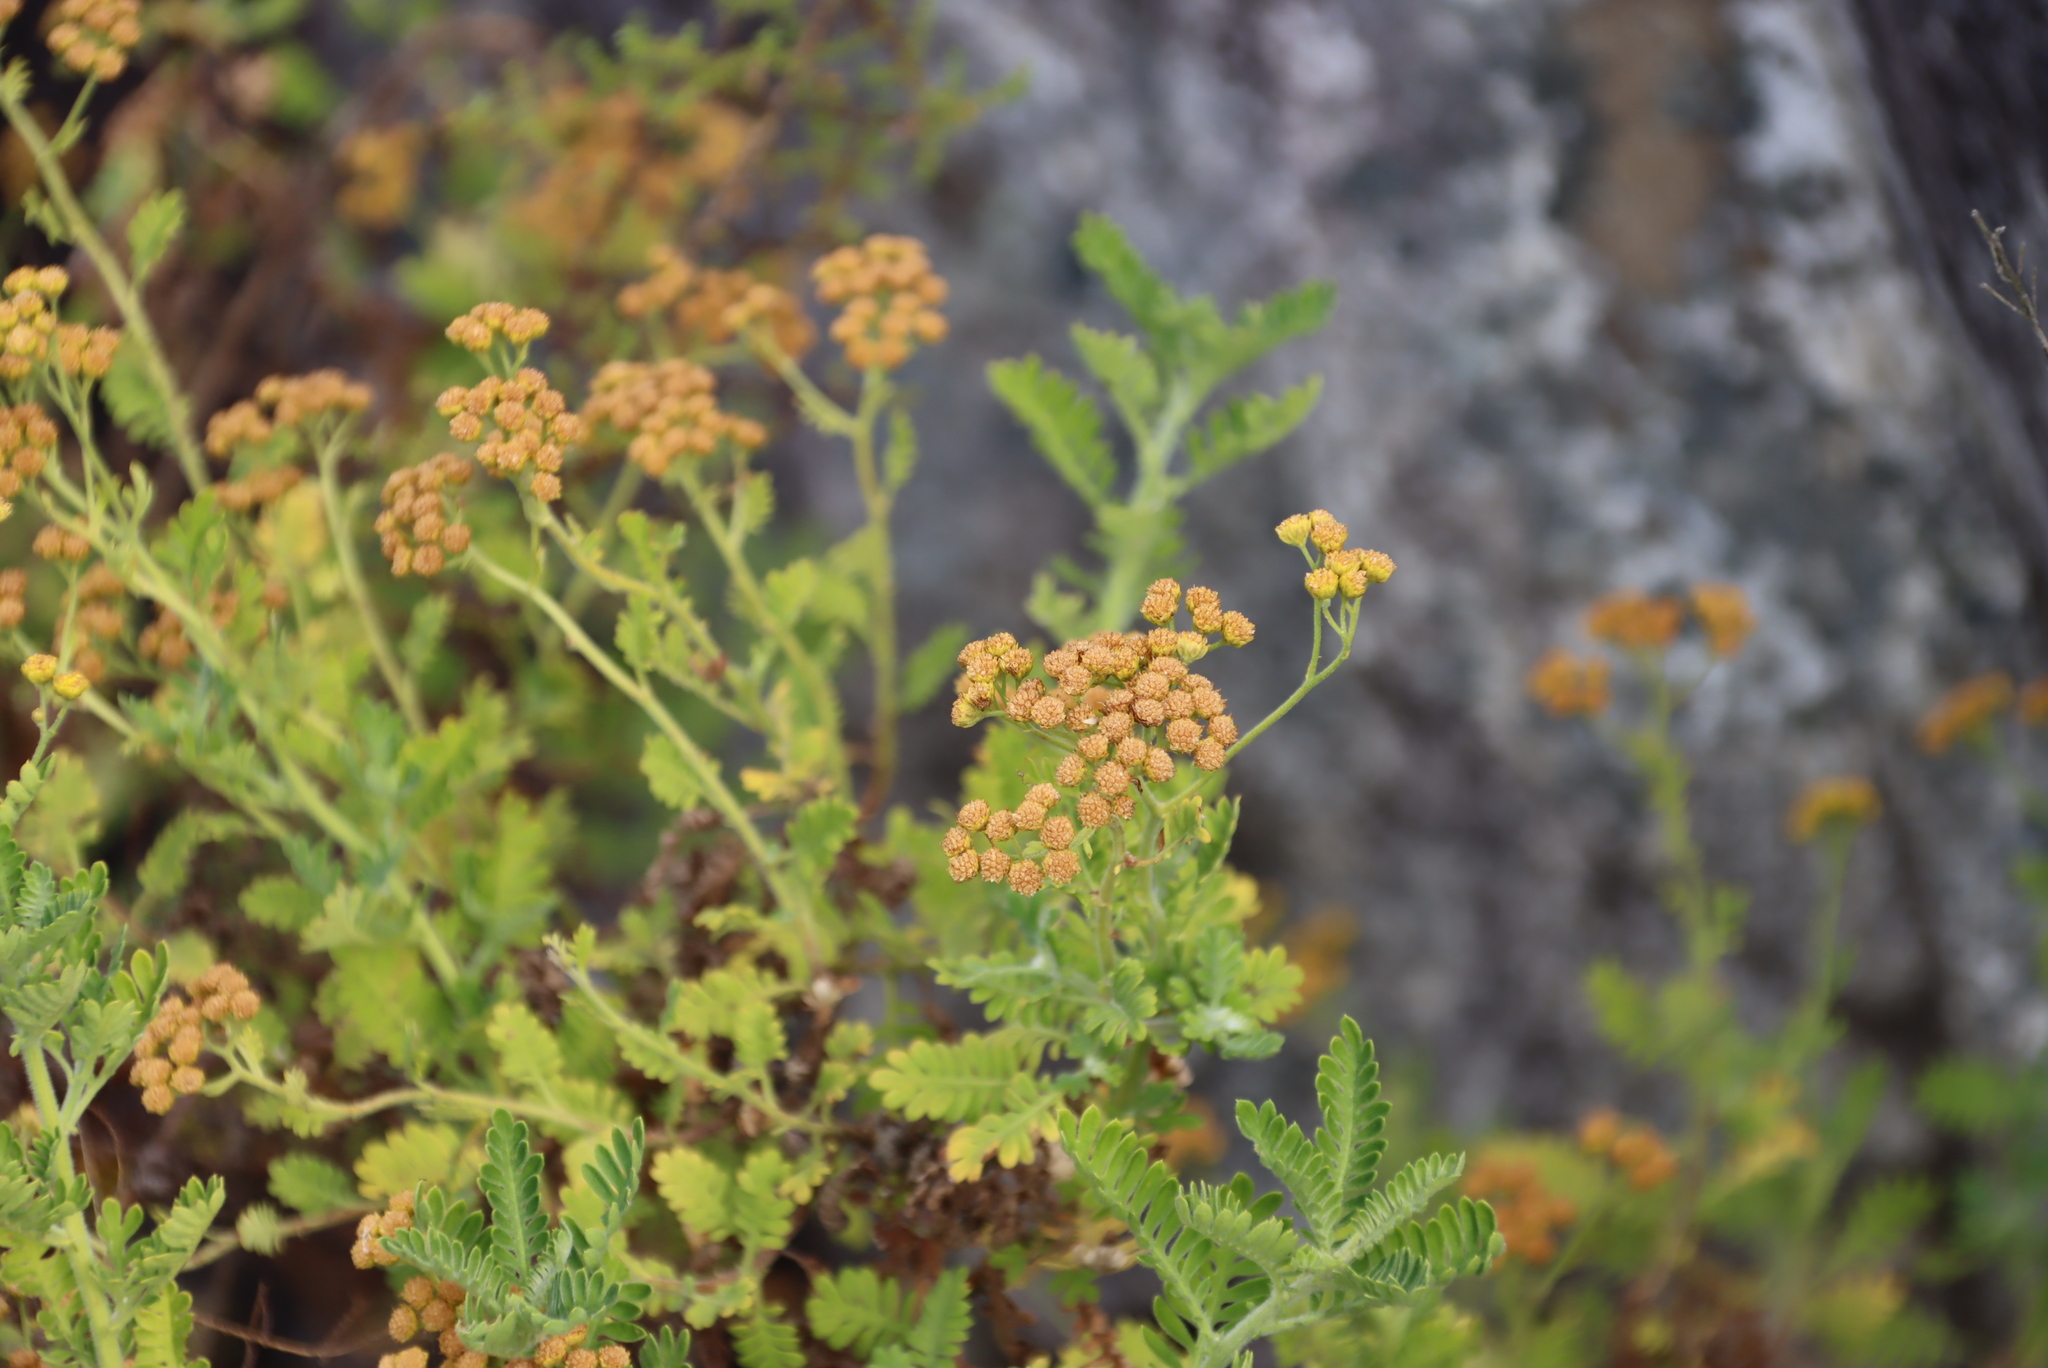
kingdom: Plantae
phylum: Tracheophyta
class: Magnoliopsida
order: Asterales
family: Asteraceae
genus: Hippia
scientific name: Hippia frutescens
